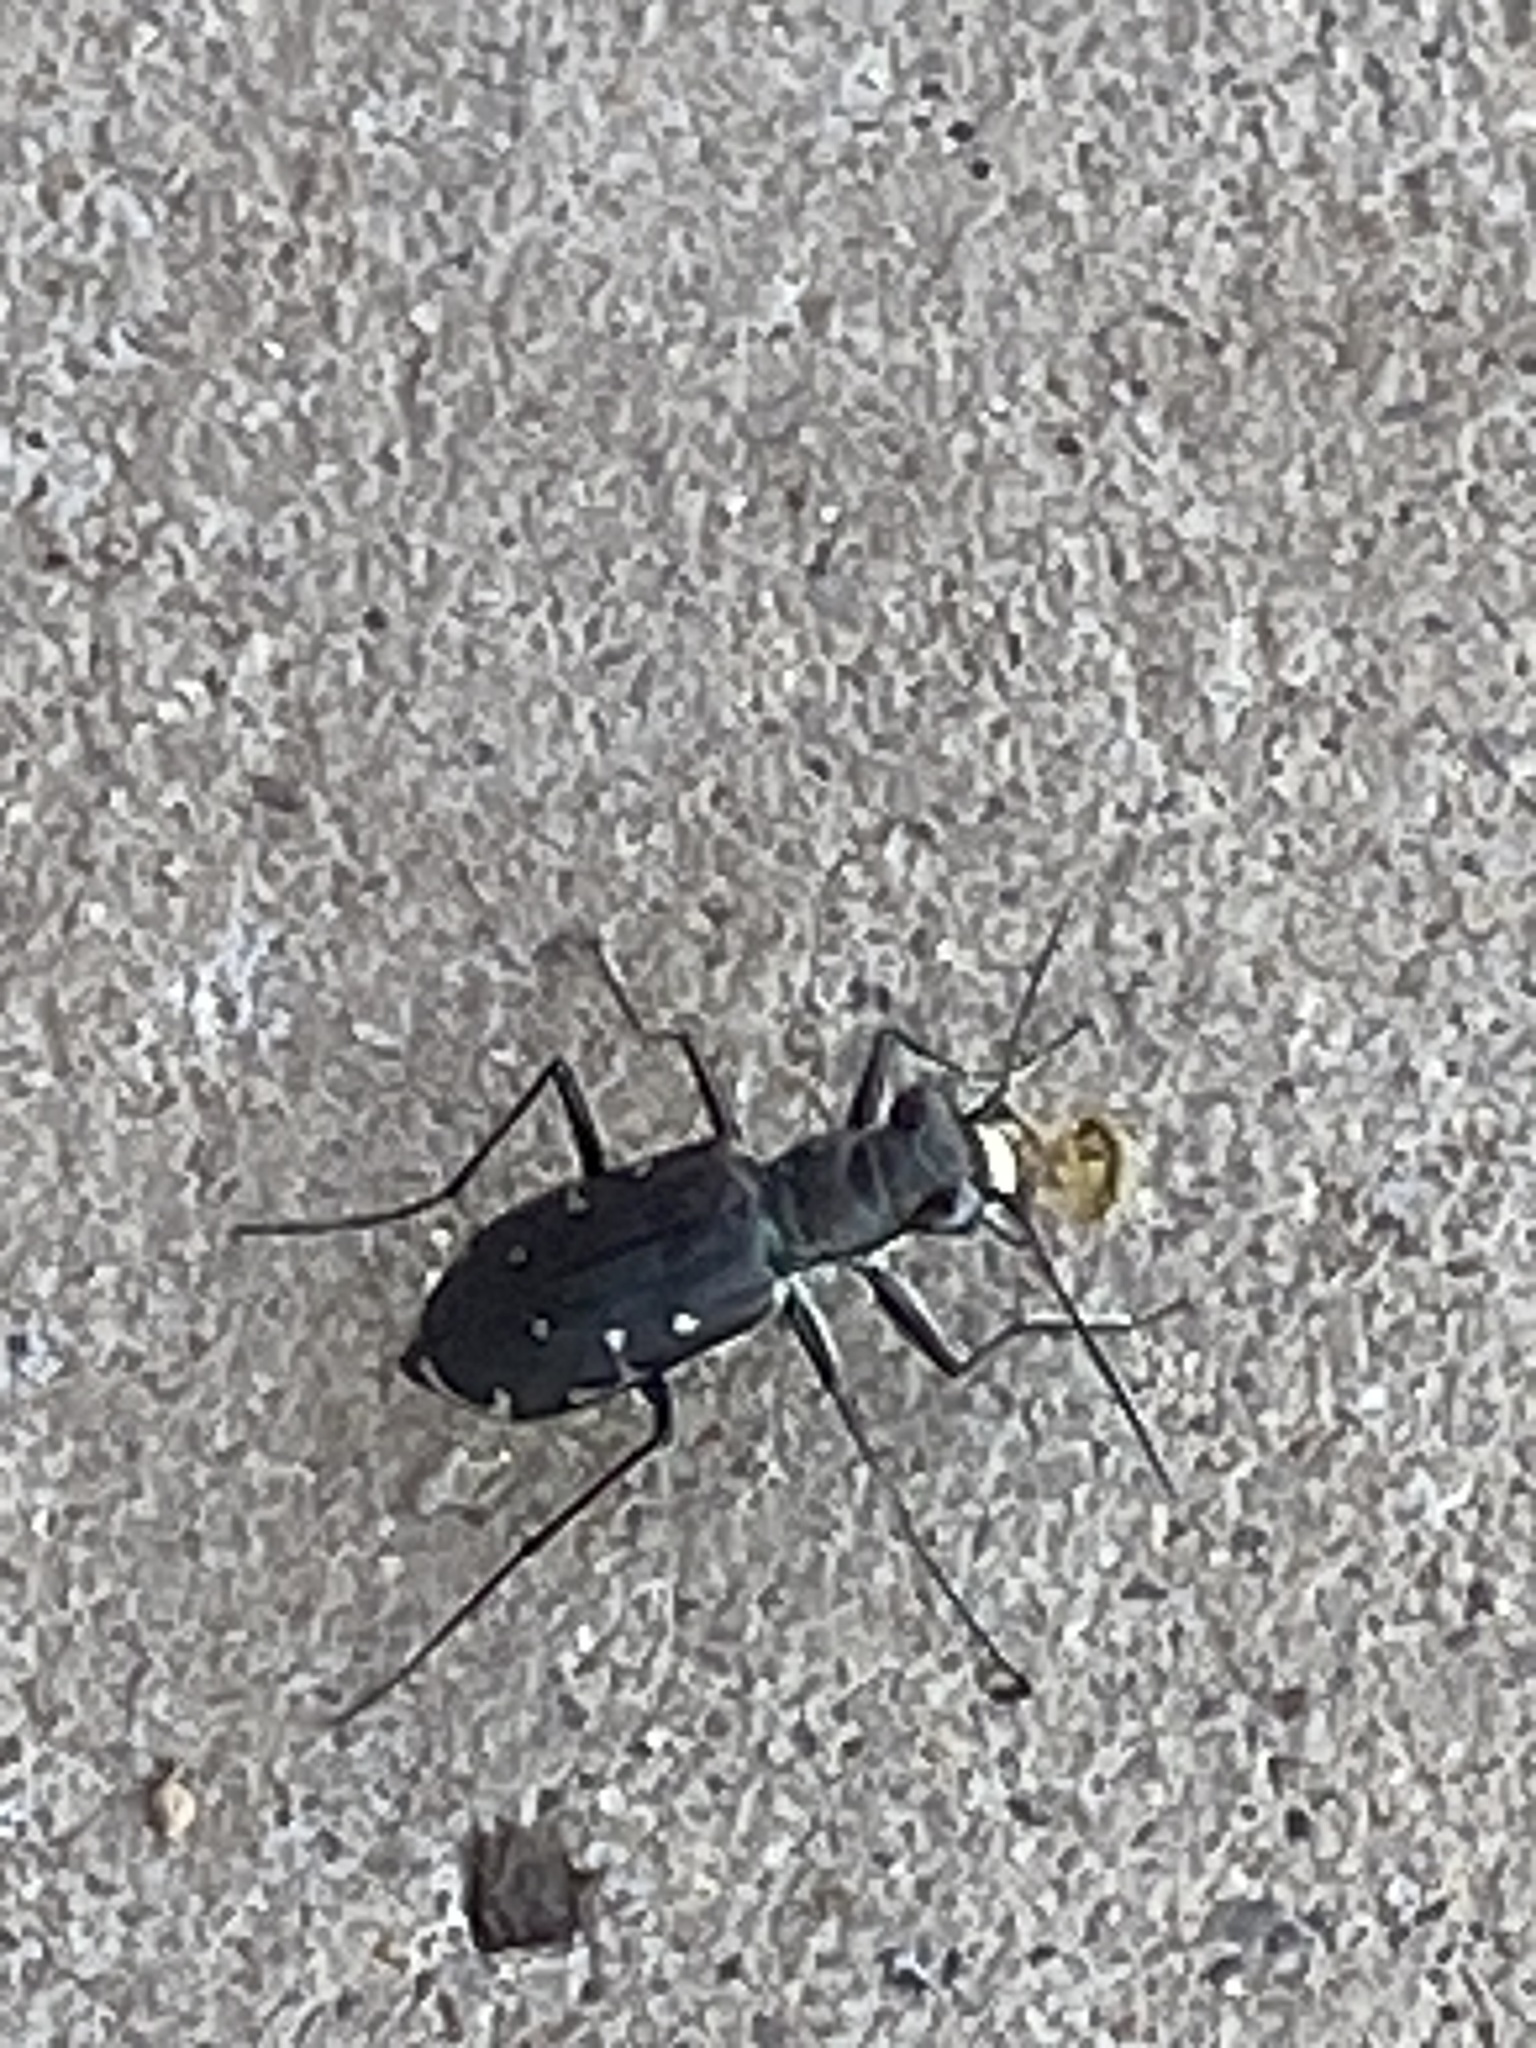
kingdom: Animalia
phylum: Arthropoda
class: Insecta
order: Coleoptera
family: Carabidae
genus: Cicindela
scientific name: Cicindela punctulata
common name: Punctured tiger beetle
